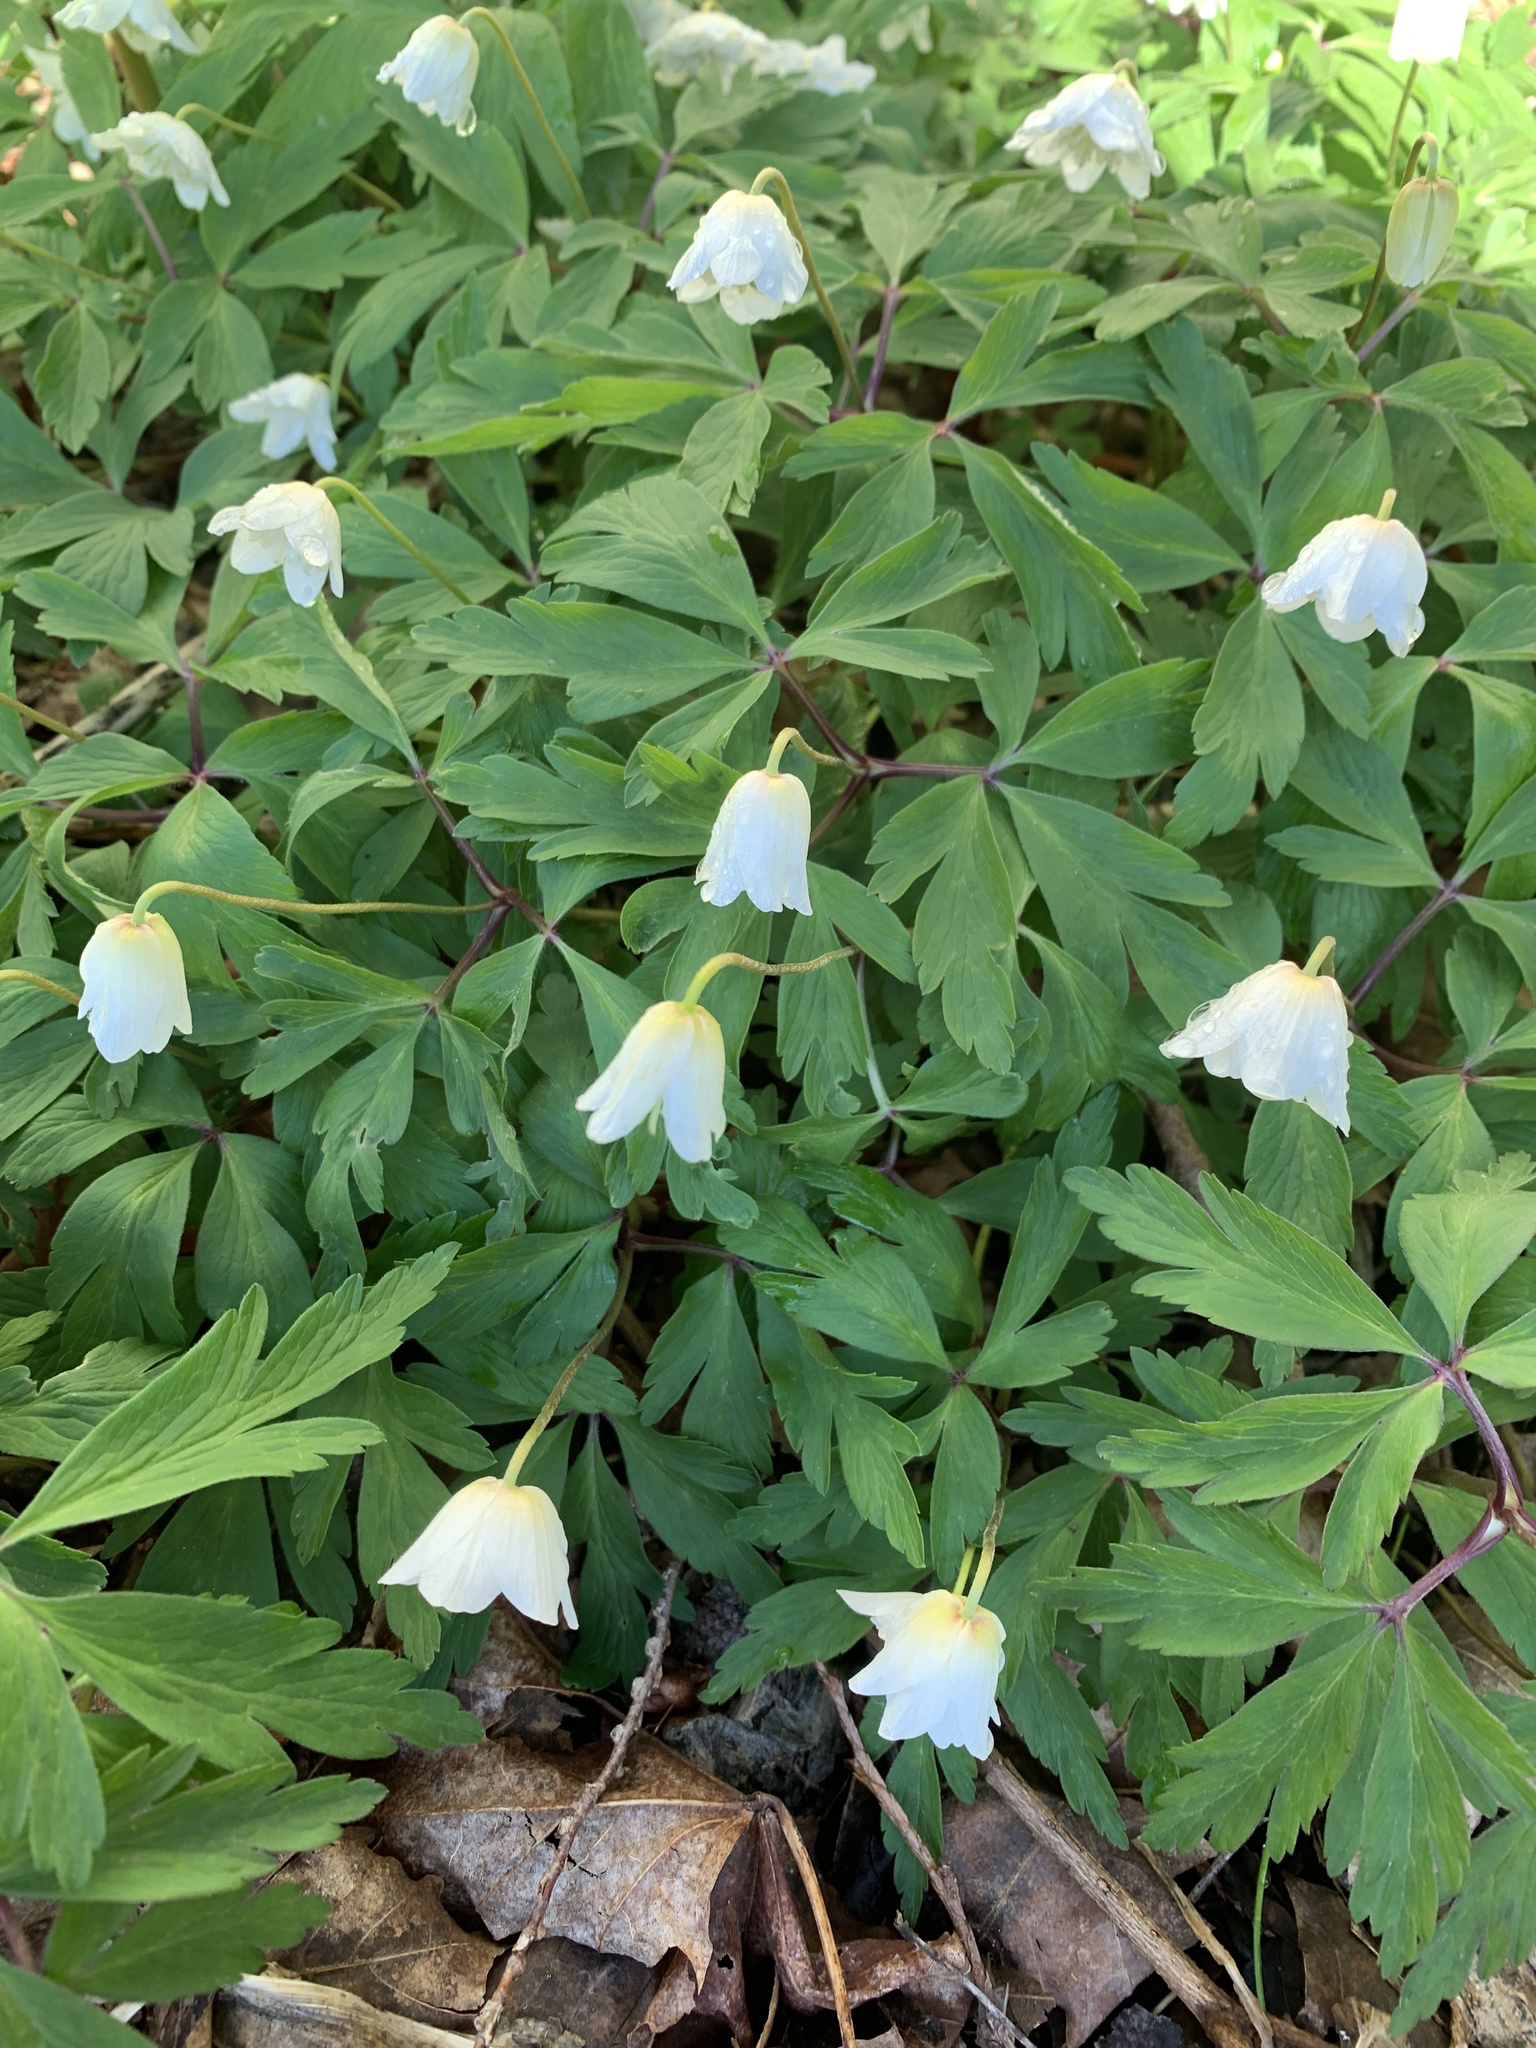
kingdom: Plantae
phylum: Tracheophyta
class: Magnoliopsida
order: Ranunculales
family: Ranunculaceae
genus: Anemone
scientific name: Anemone nemorosa
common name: Wood anemone
